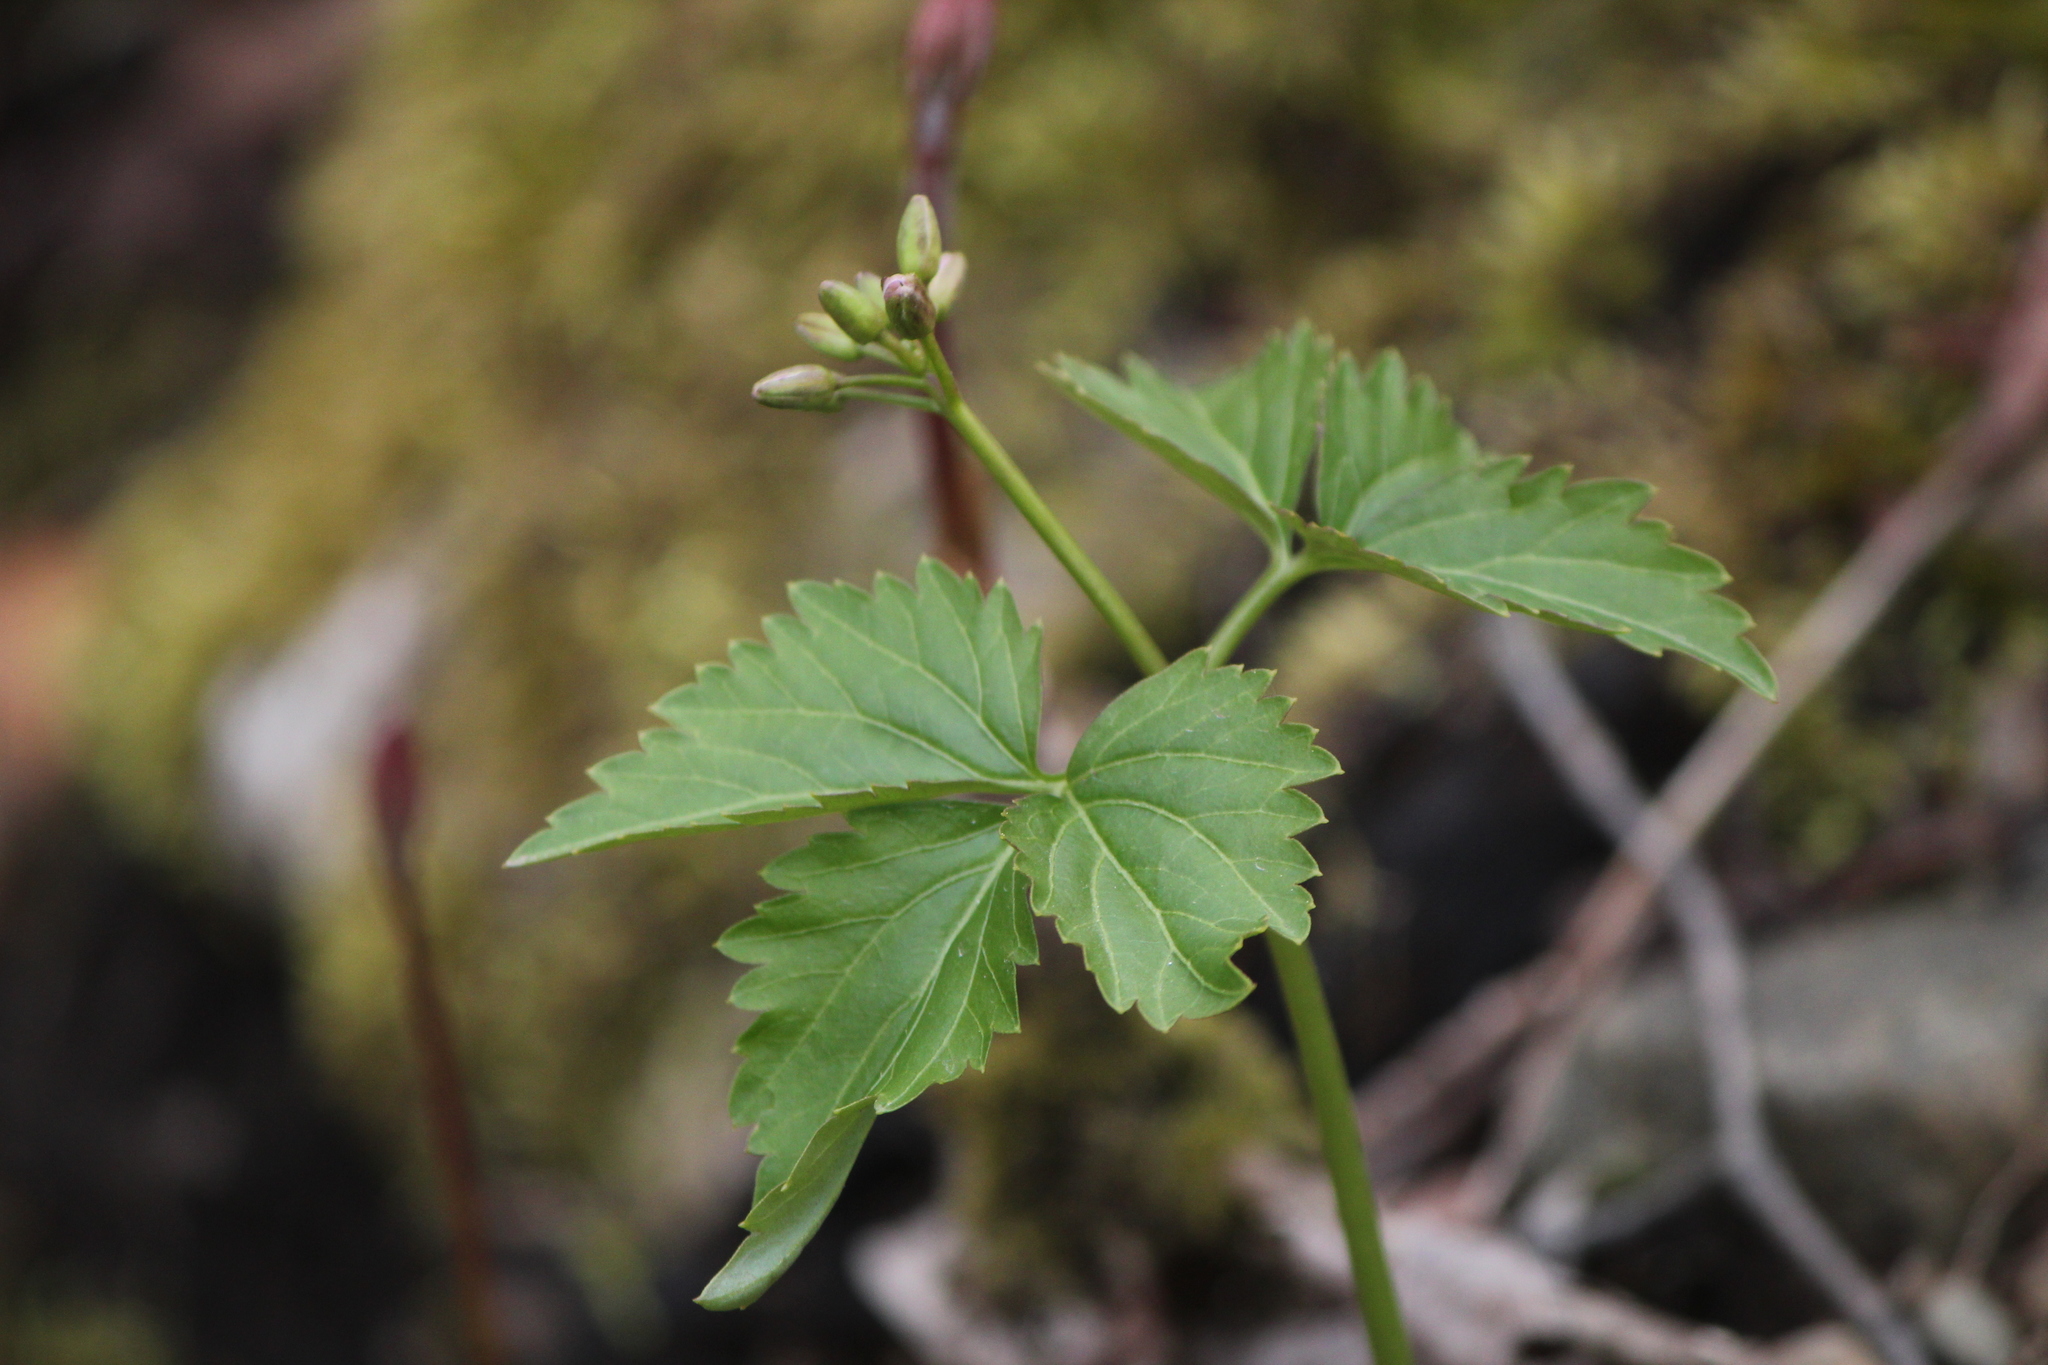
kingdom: Plantae
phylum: Tracheophyta
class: Magnoliopsida
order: Brassicales
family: Brassicaceae
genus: Cardamine
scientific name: Cardamine diphylla
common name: Broad-leaved toothwort
